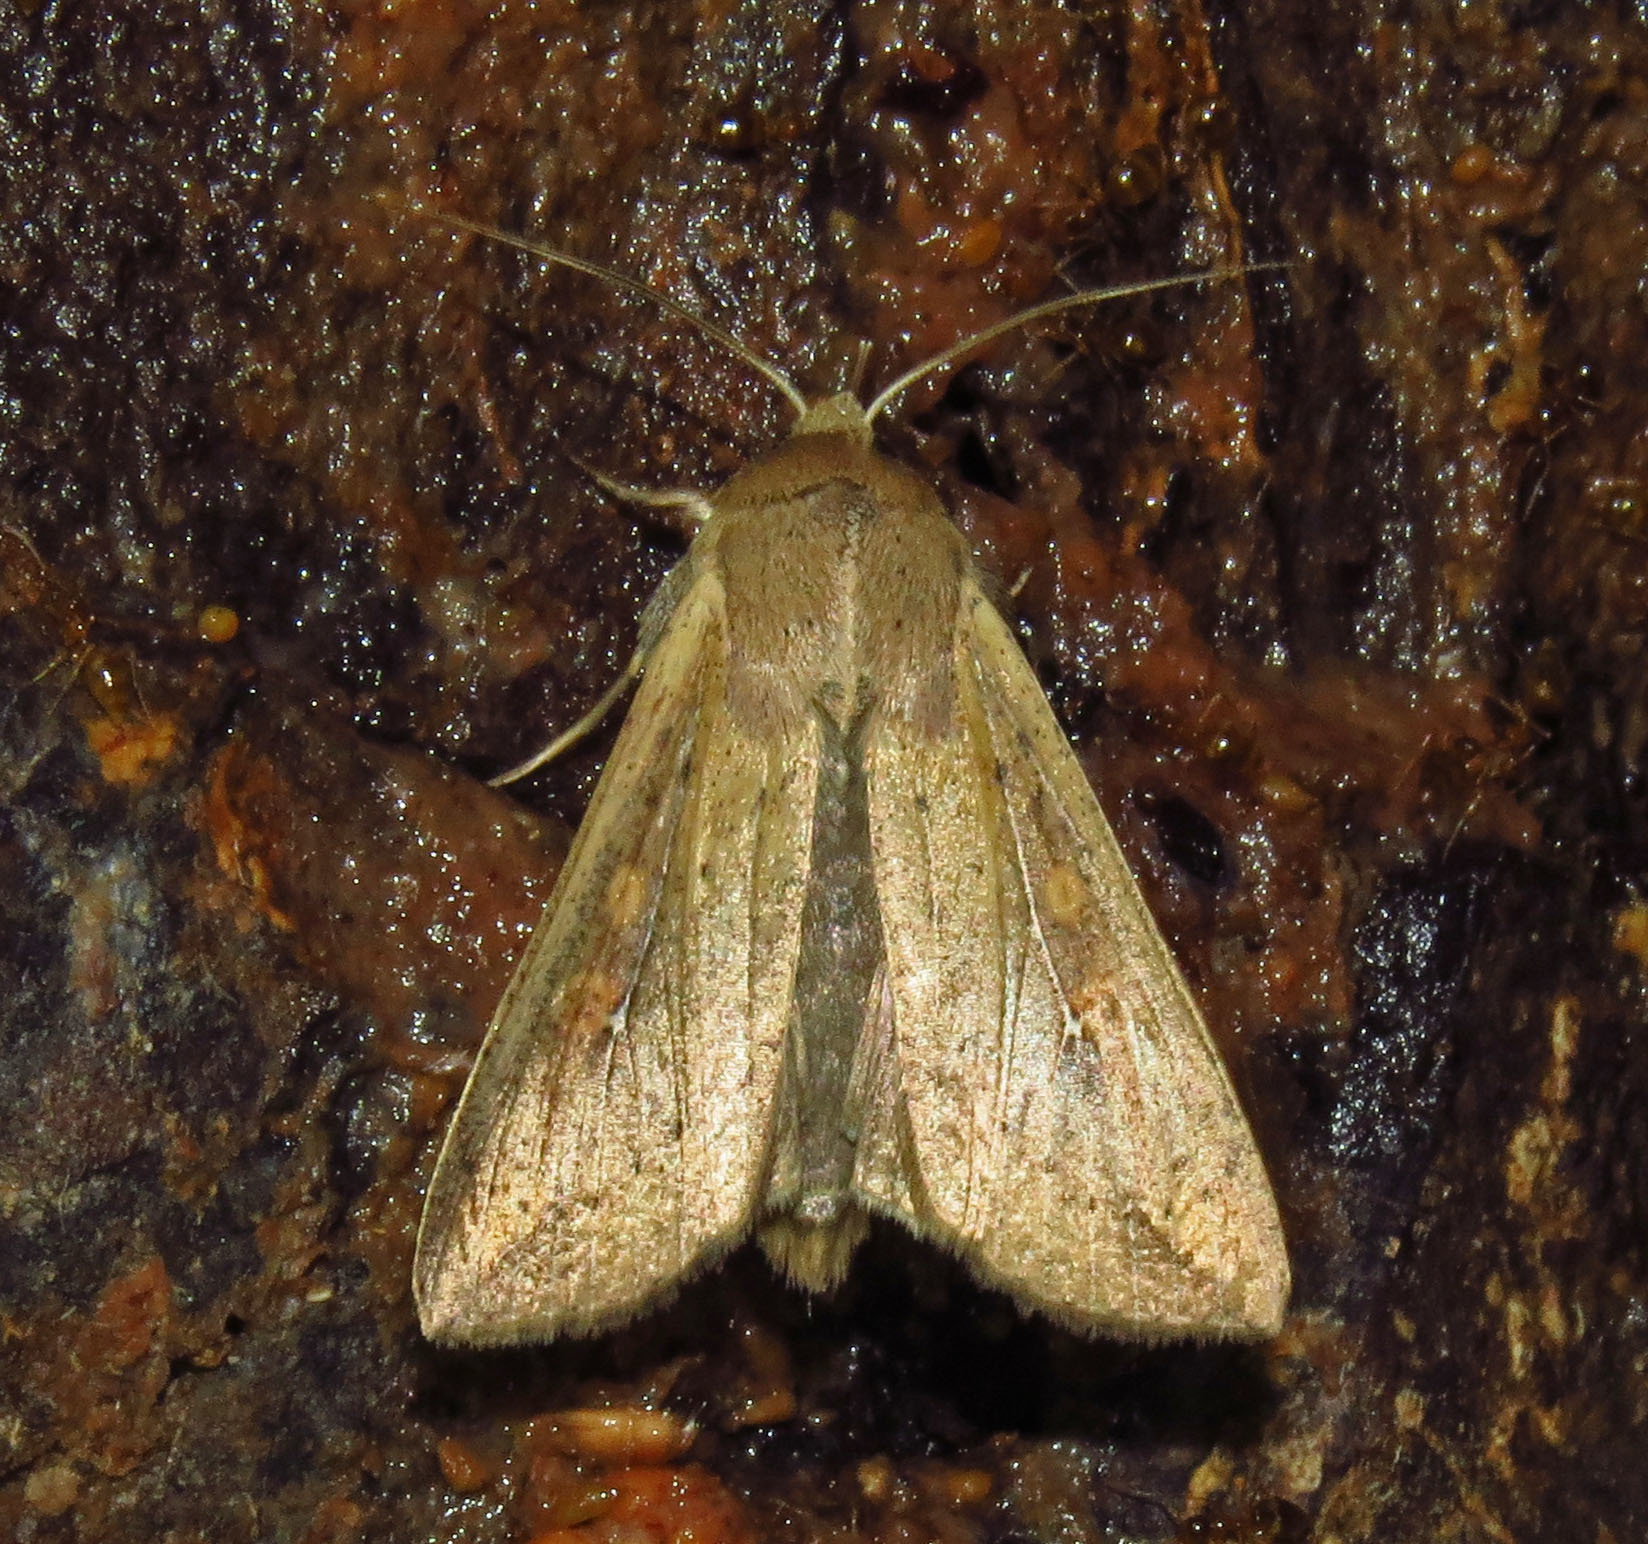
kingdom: Animalia
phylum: Arthropoda
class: Insecta
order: Lepidoptera
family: Noctuidae
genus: Mythimna
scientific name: Mythimna unipuncta
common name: White-speck
